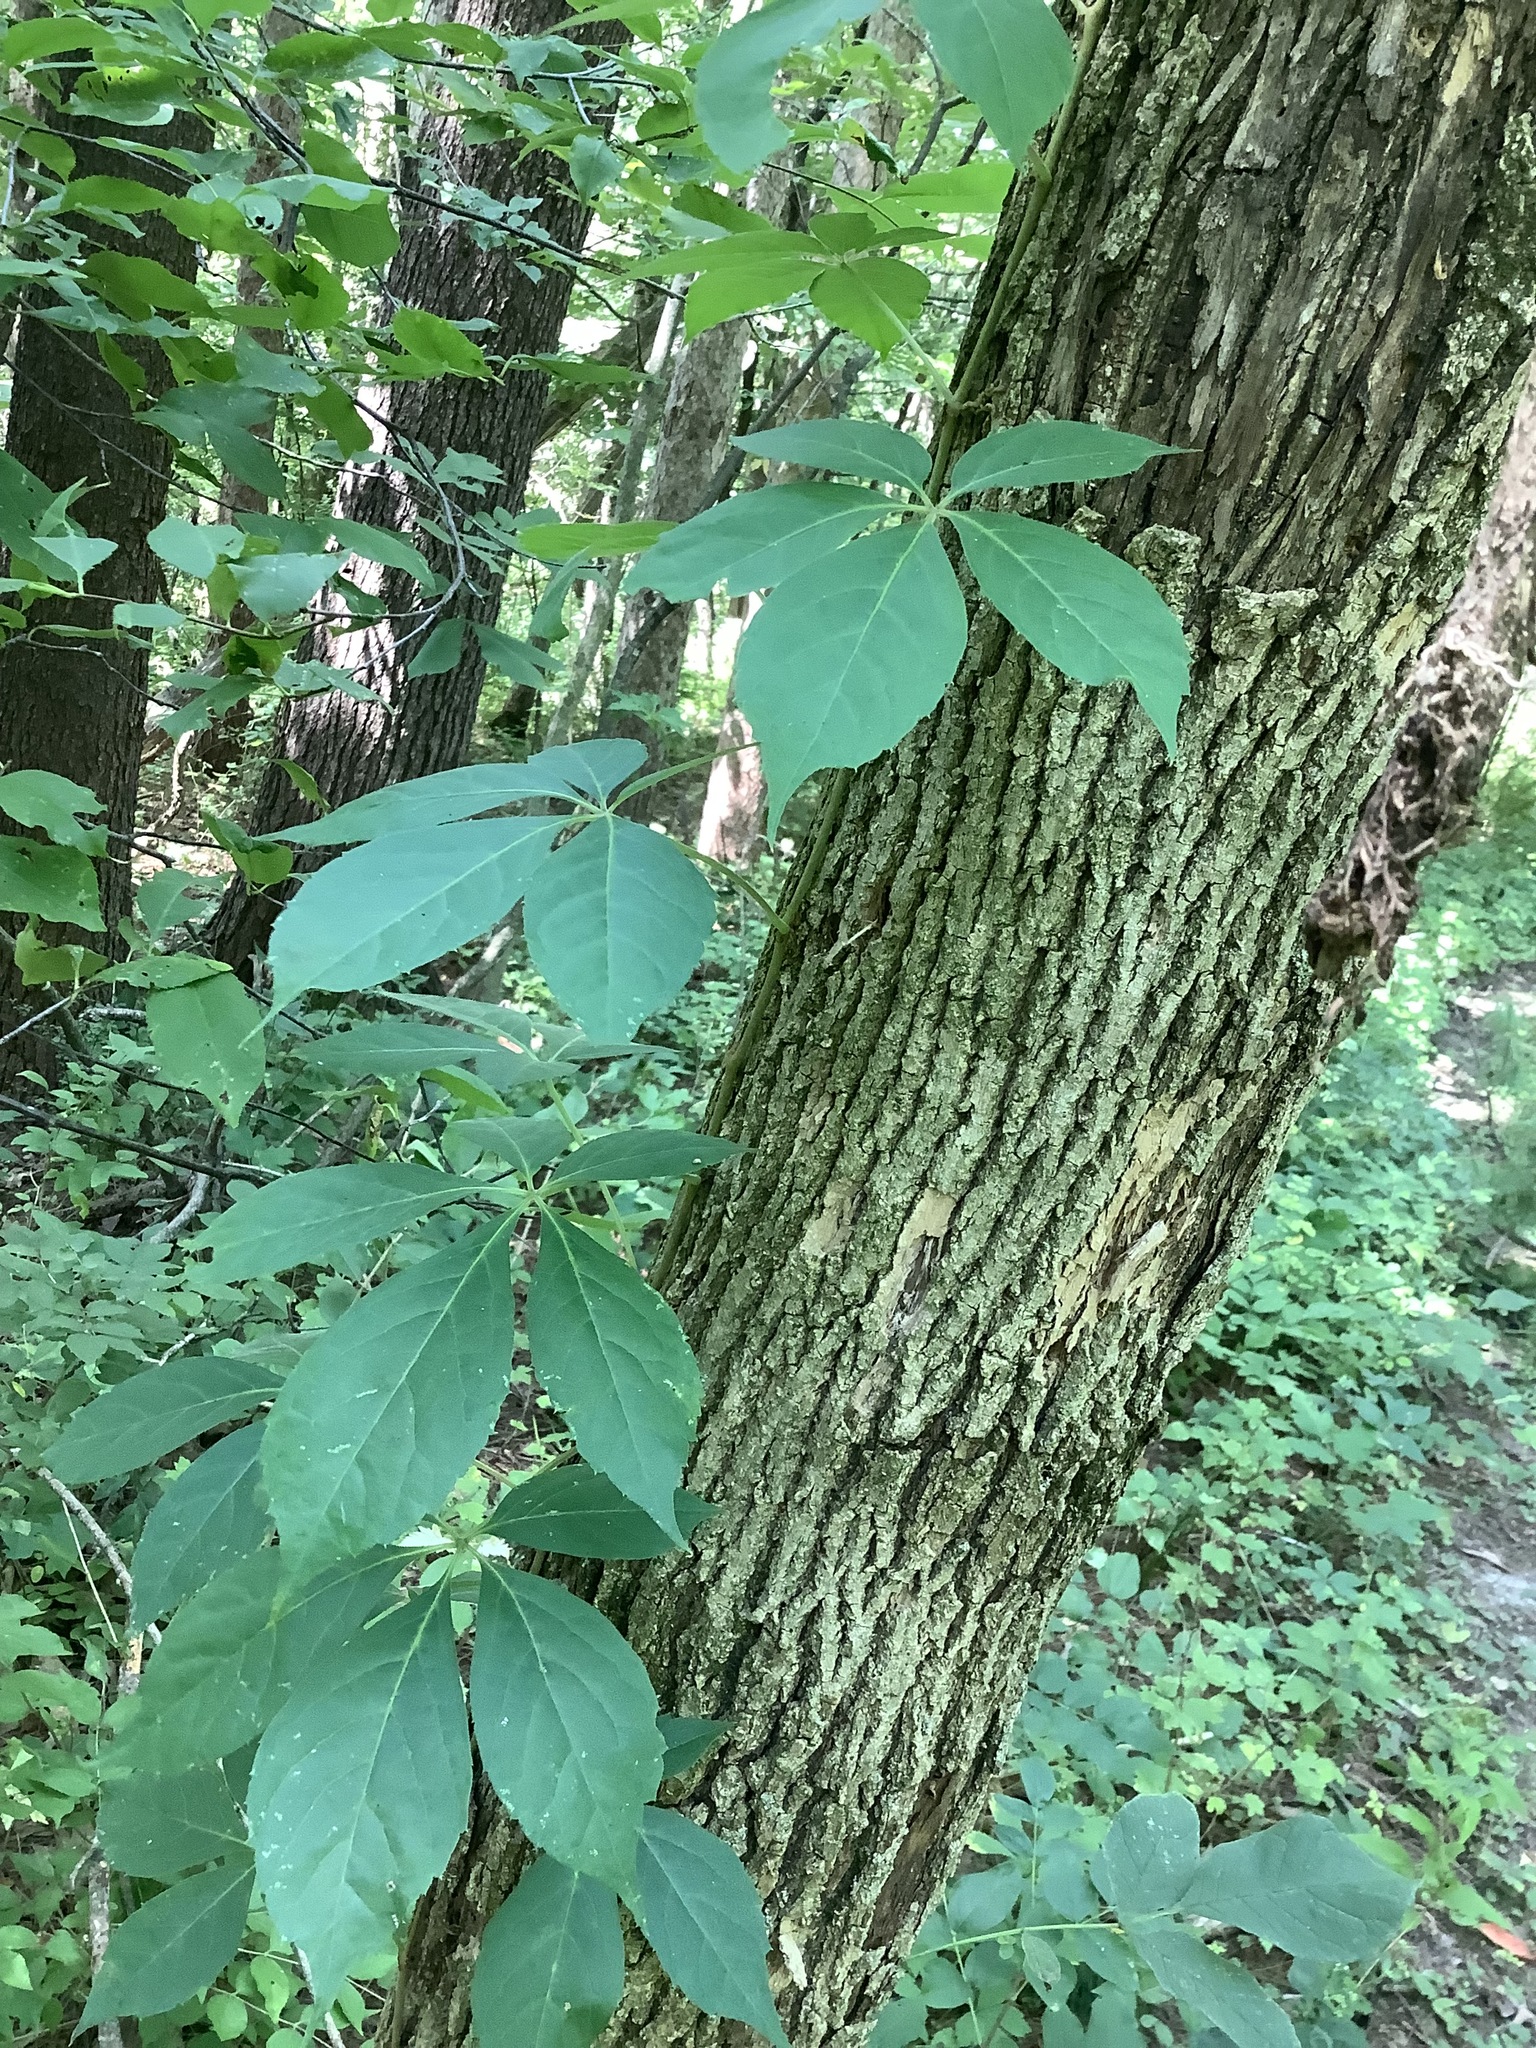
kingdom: Plantae
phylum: Tracheophyta
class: Magnoliopsida
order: Vitales
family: Vitaceae
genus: Parthenocissus
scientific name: Parthenocissus quinquefolia
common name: Virginia-creeper
